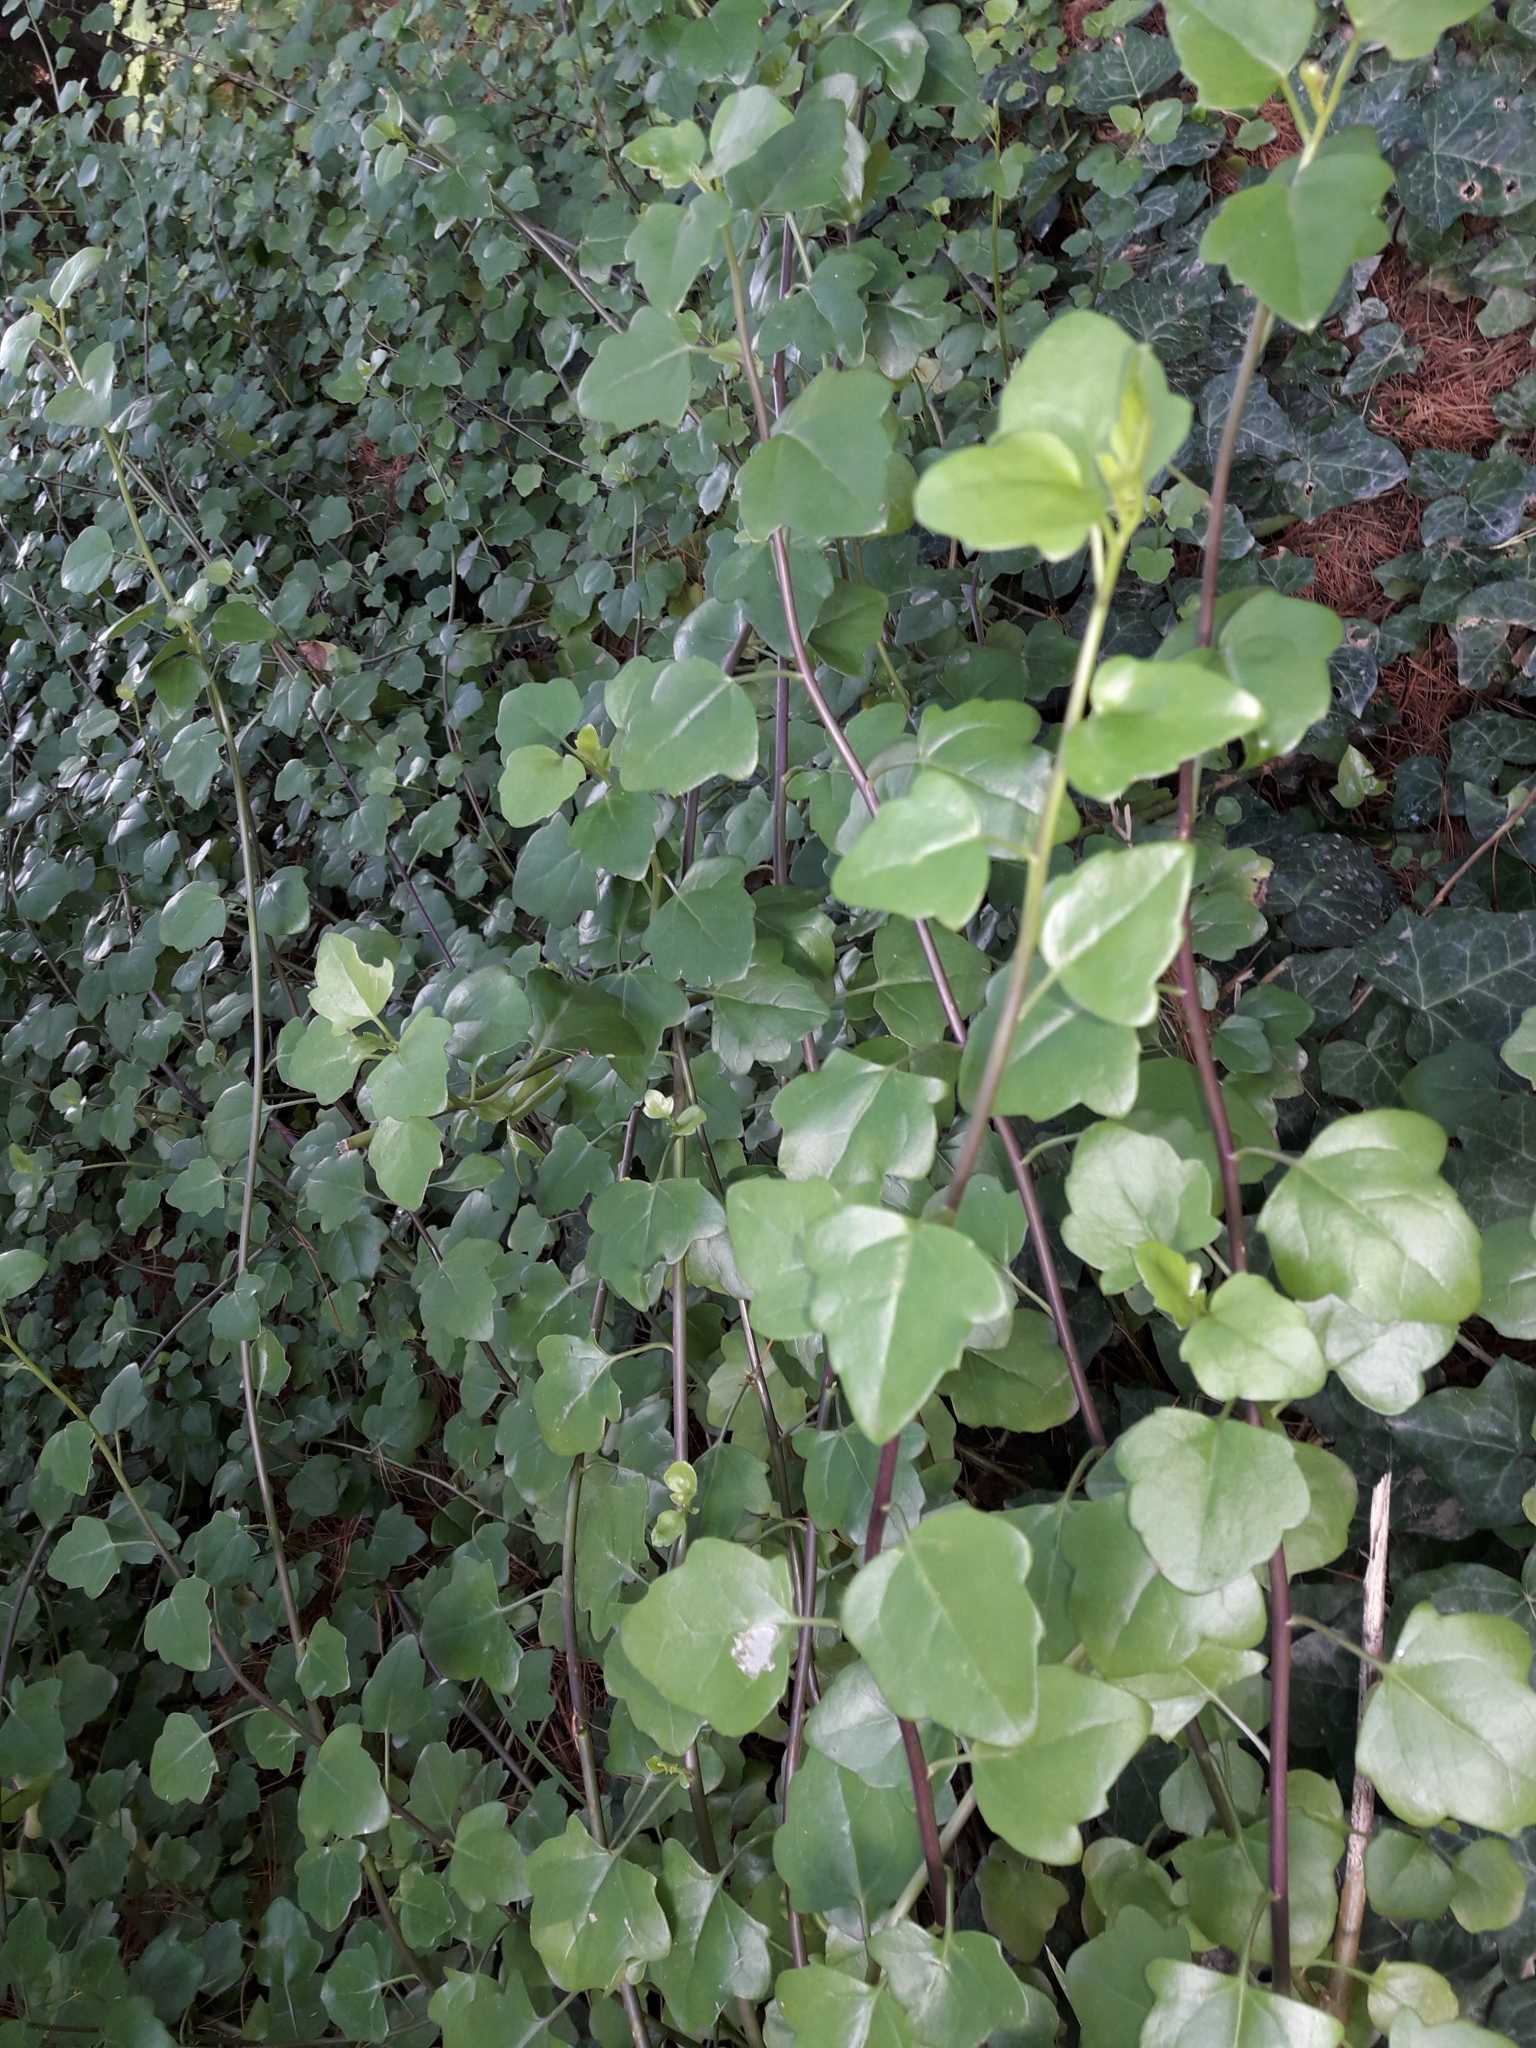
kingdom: Plantae
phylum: Tracheophyta
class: Magnoliopsida
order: Asterales
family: Asteraceae
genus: Senecio
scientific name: Senecio angulatus
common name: Climbing groundsel
